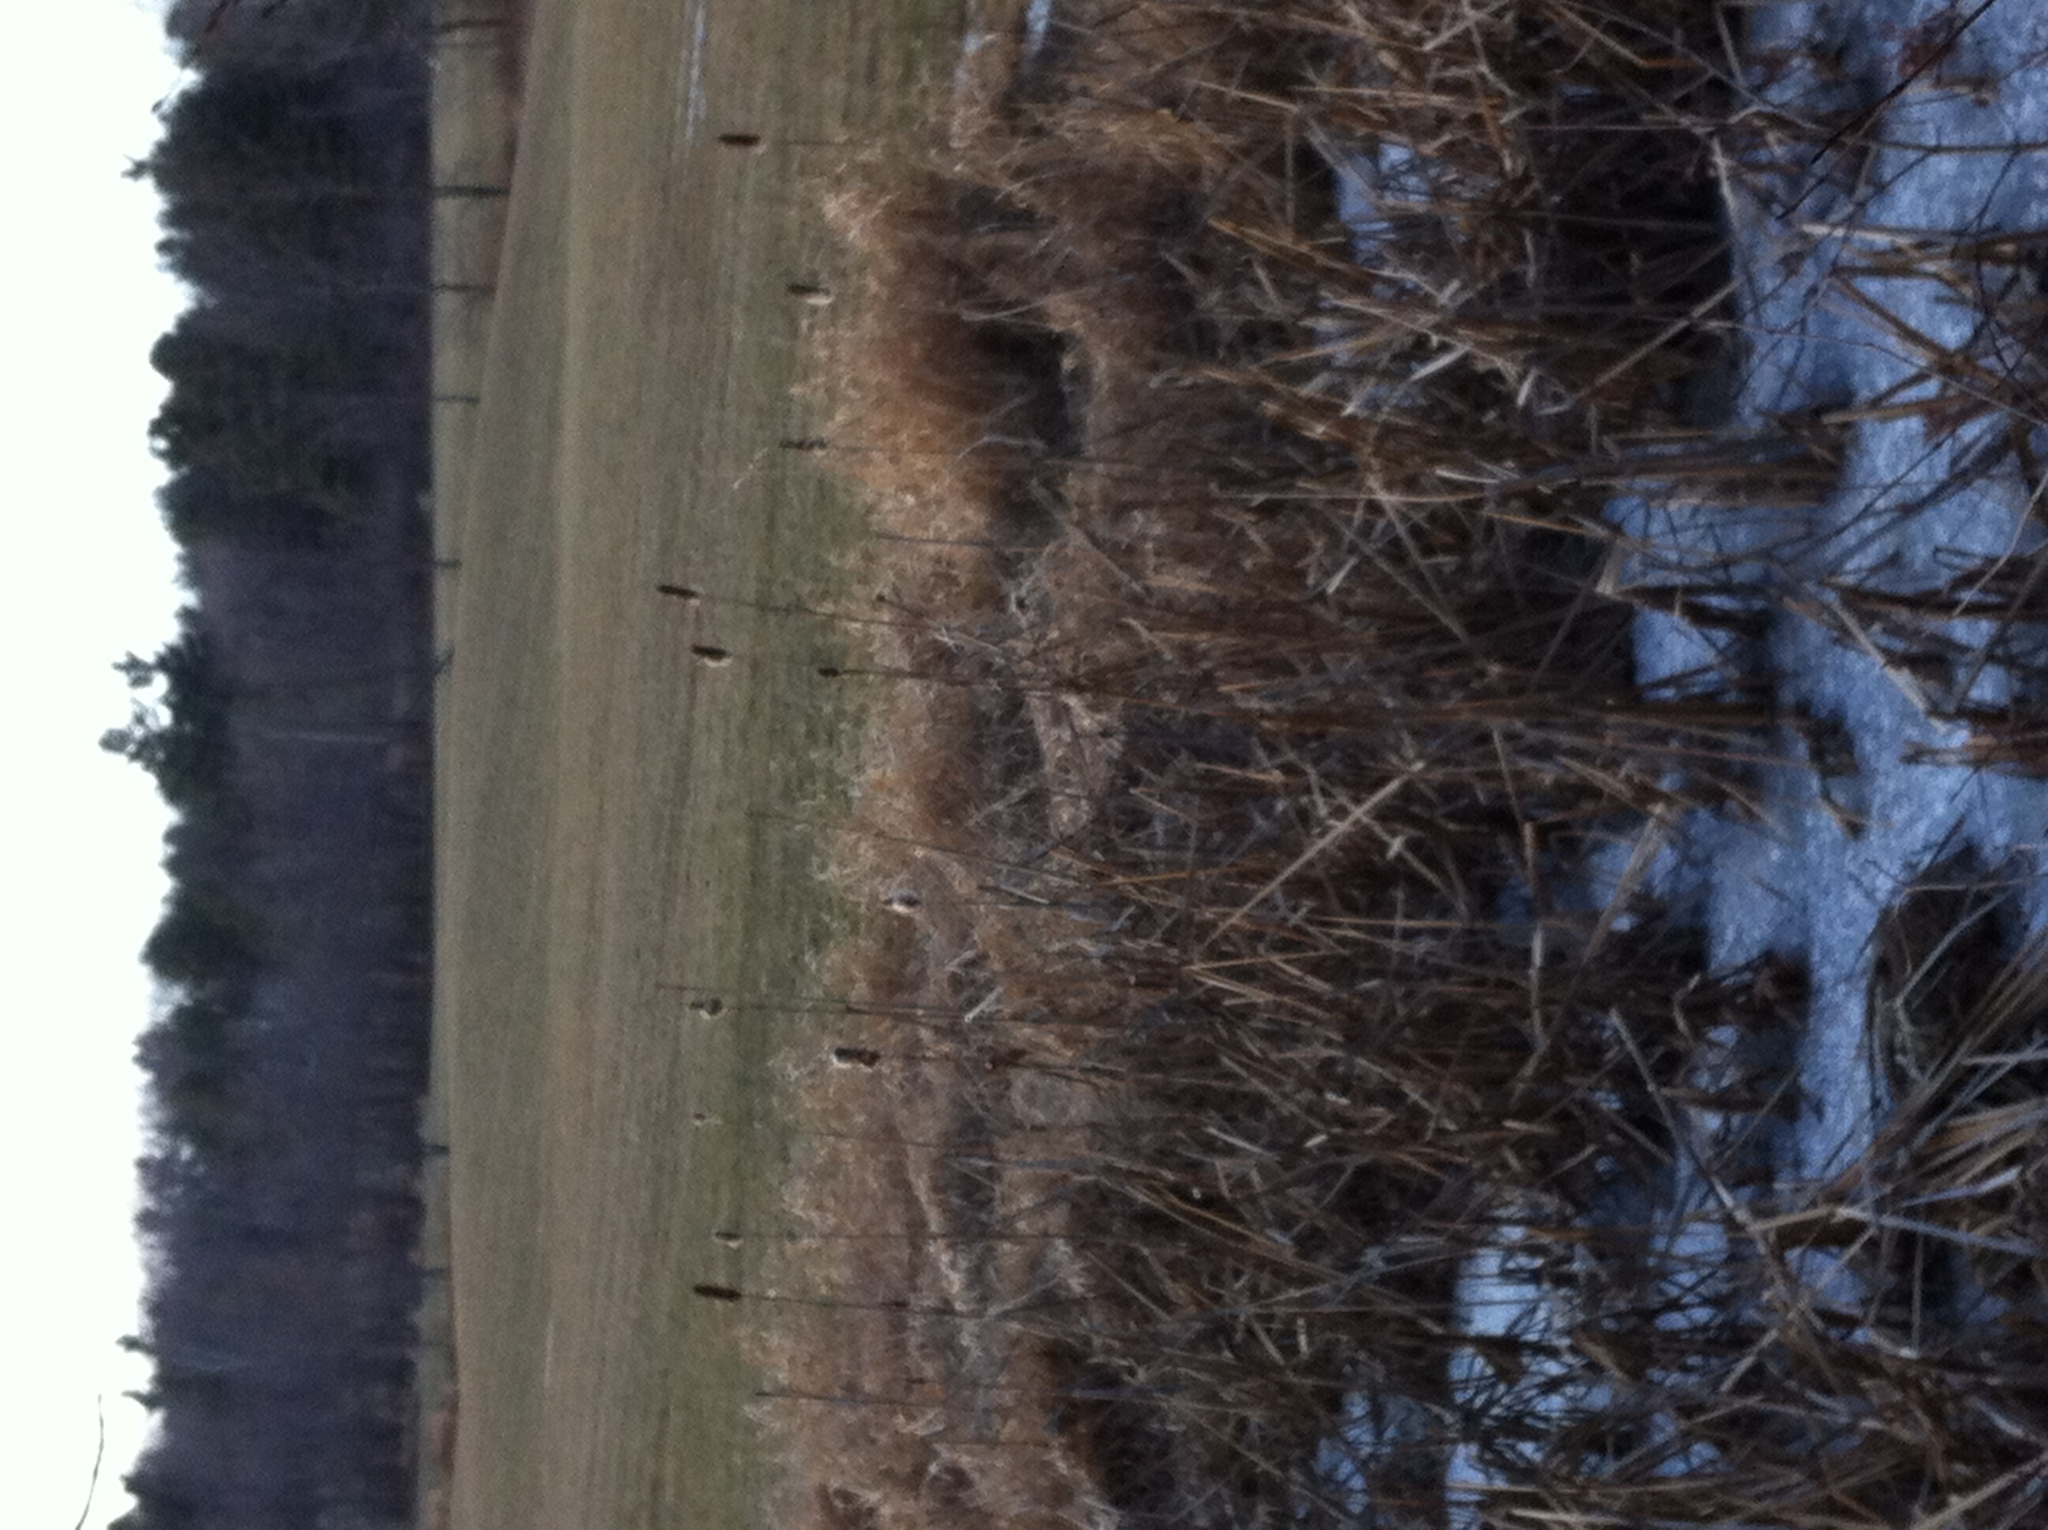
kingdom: Plantae
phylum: Tracheophyta
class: Liliopsida
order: Poales
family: Typhaceae
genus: Typha
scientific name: Typha
